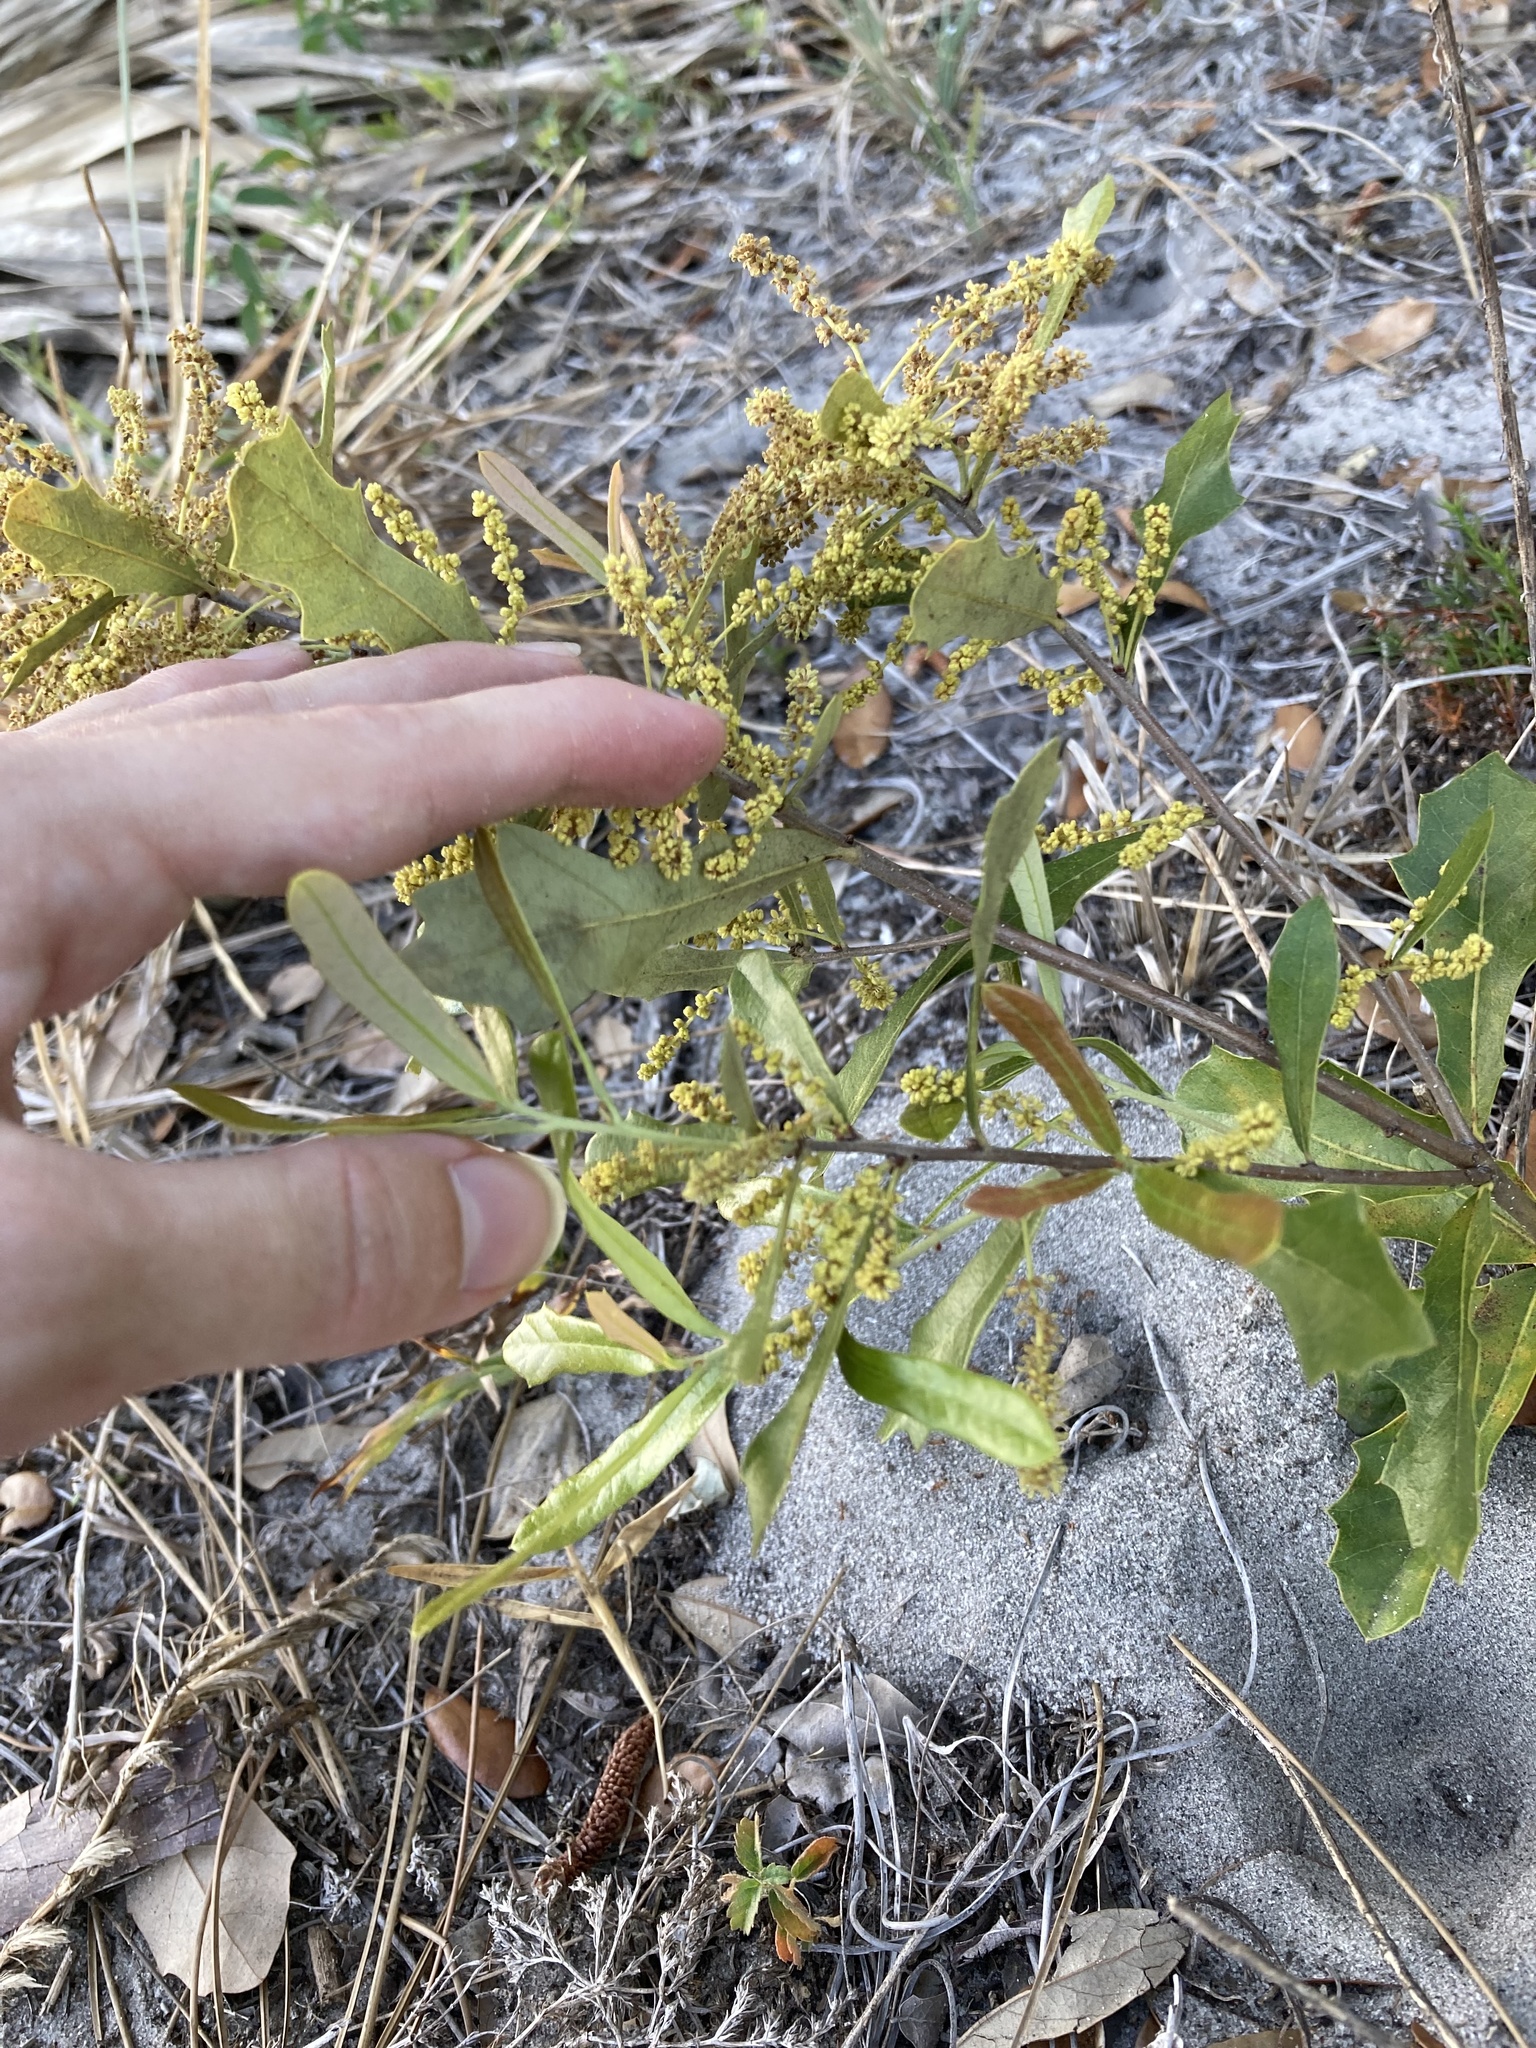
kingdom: Plantae
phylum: Tracheophyta
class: Magnoliopsida
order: Fagales
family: Fagaceae
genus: Quercus
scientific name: Quercus minima
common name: Dwarf live oak
